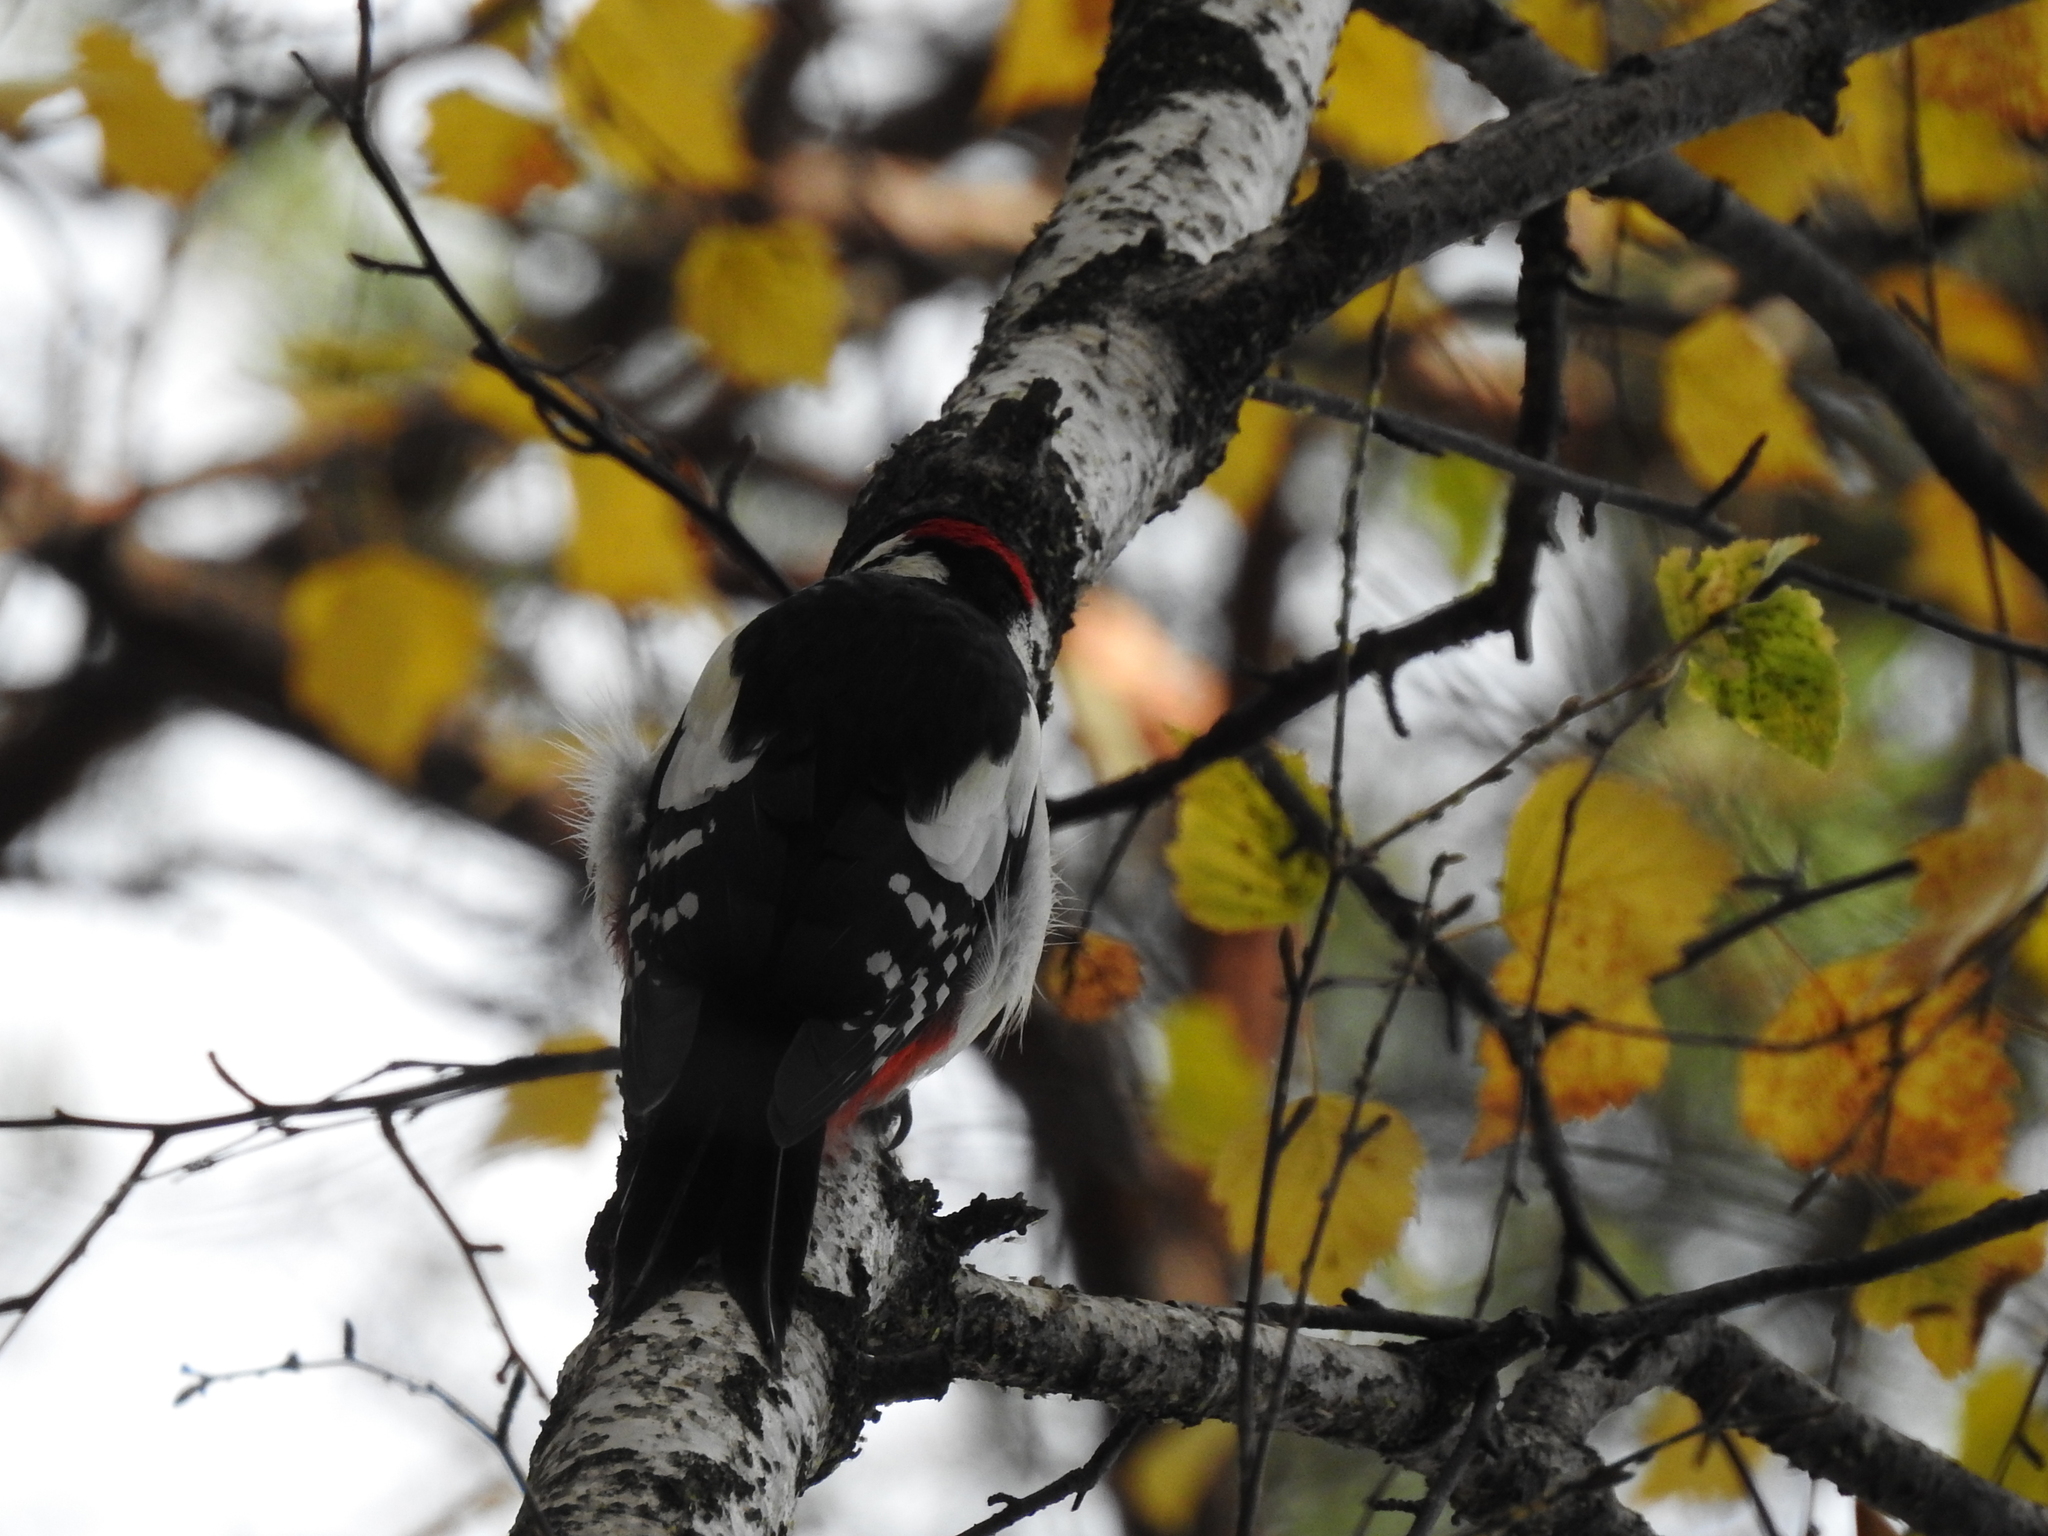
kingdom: Animalia
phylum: Chordata
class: Aves
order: Piciformes
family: Picidae
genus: Dendrocopos
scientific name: Dendrocopos major
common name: Great spotted woodpecker
